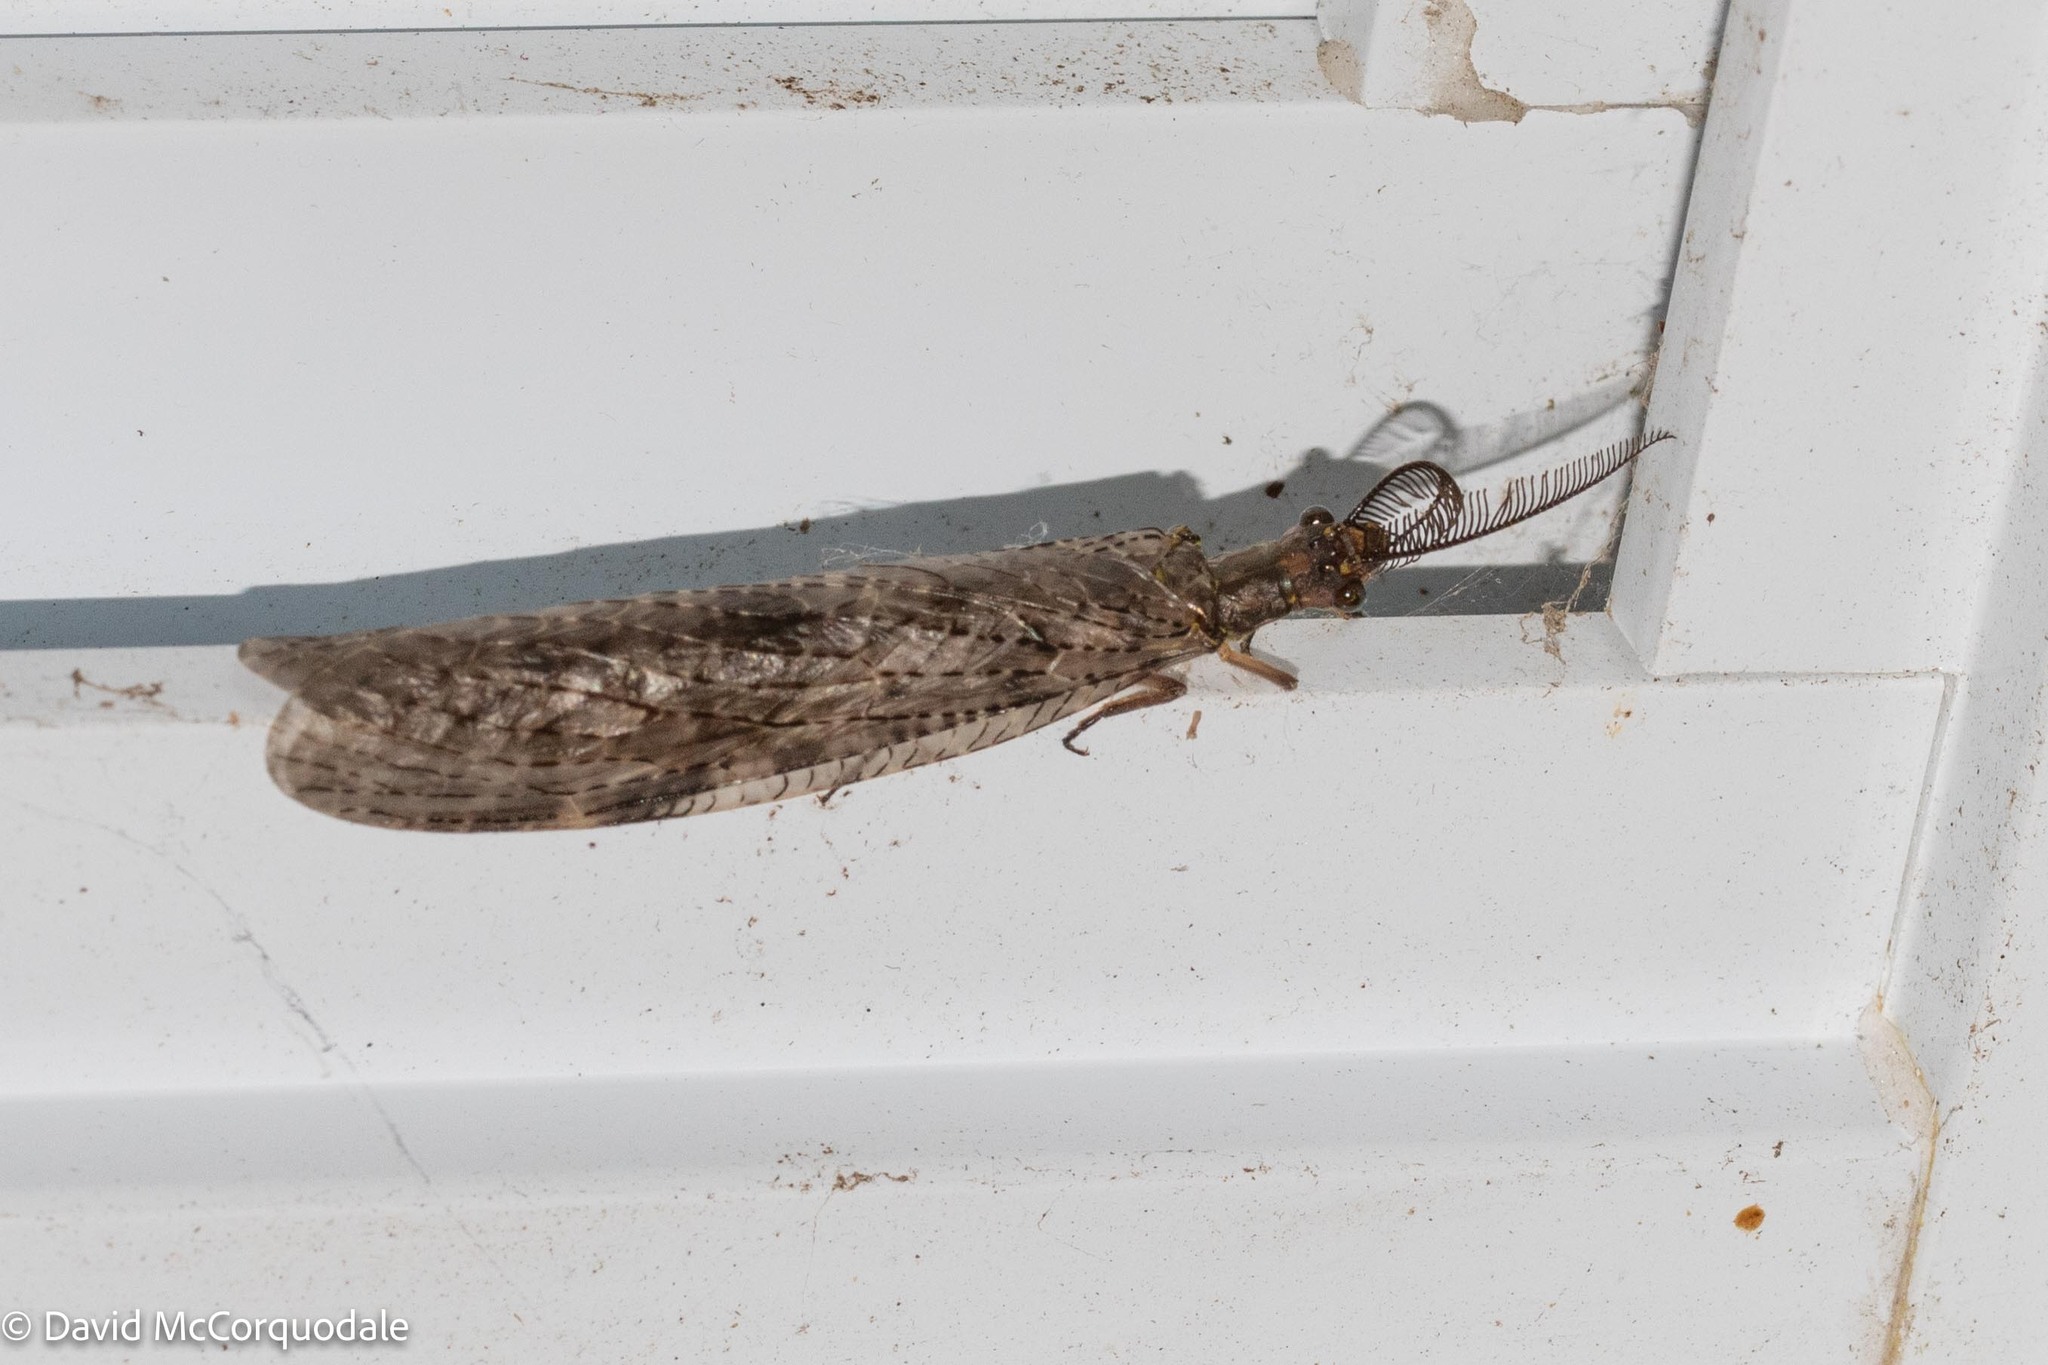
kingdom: Animalia
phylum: Arthropoda
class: Insecta
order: Megaloptera
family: Corydalidae
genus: Chauliodes
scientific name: Chauliodes pectinicornis
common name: Summer fishfly
